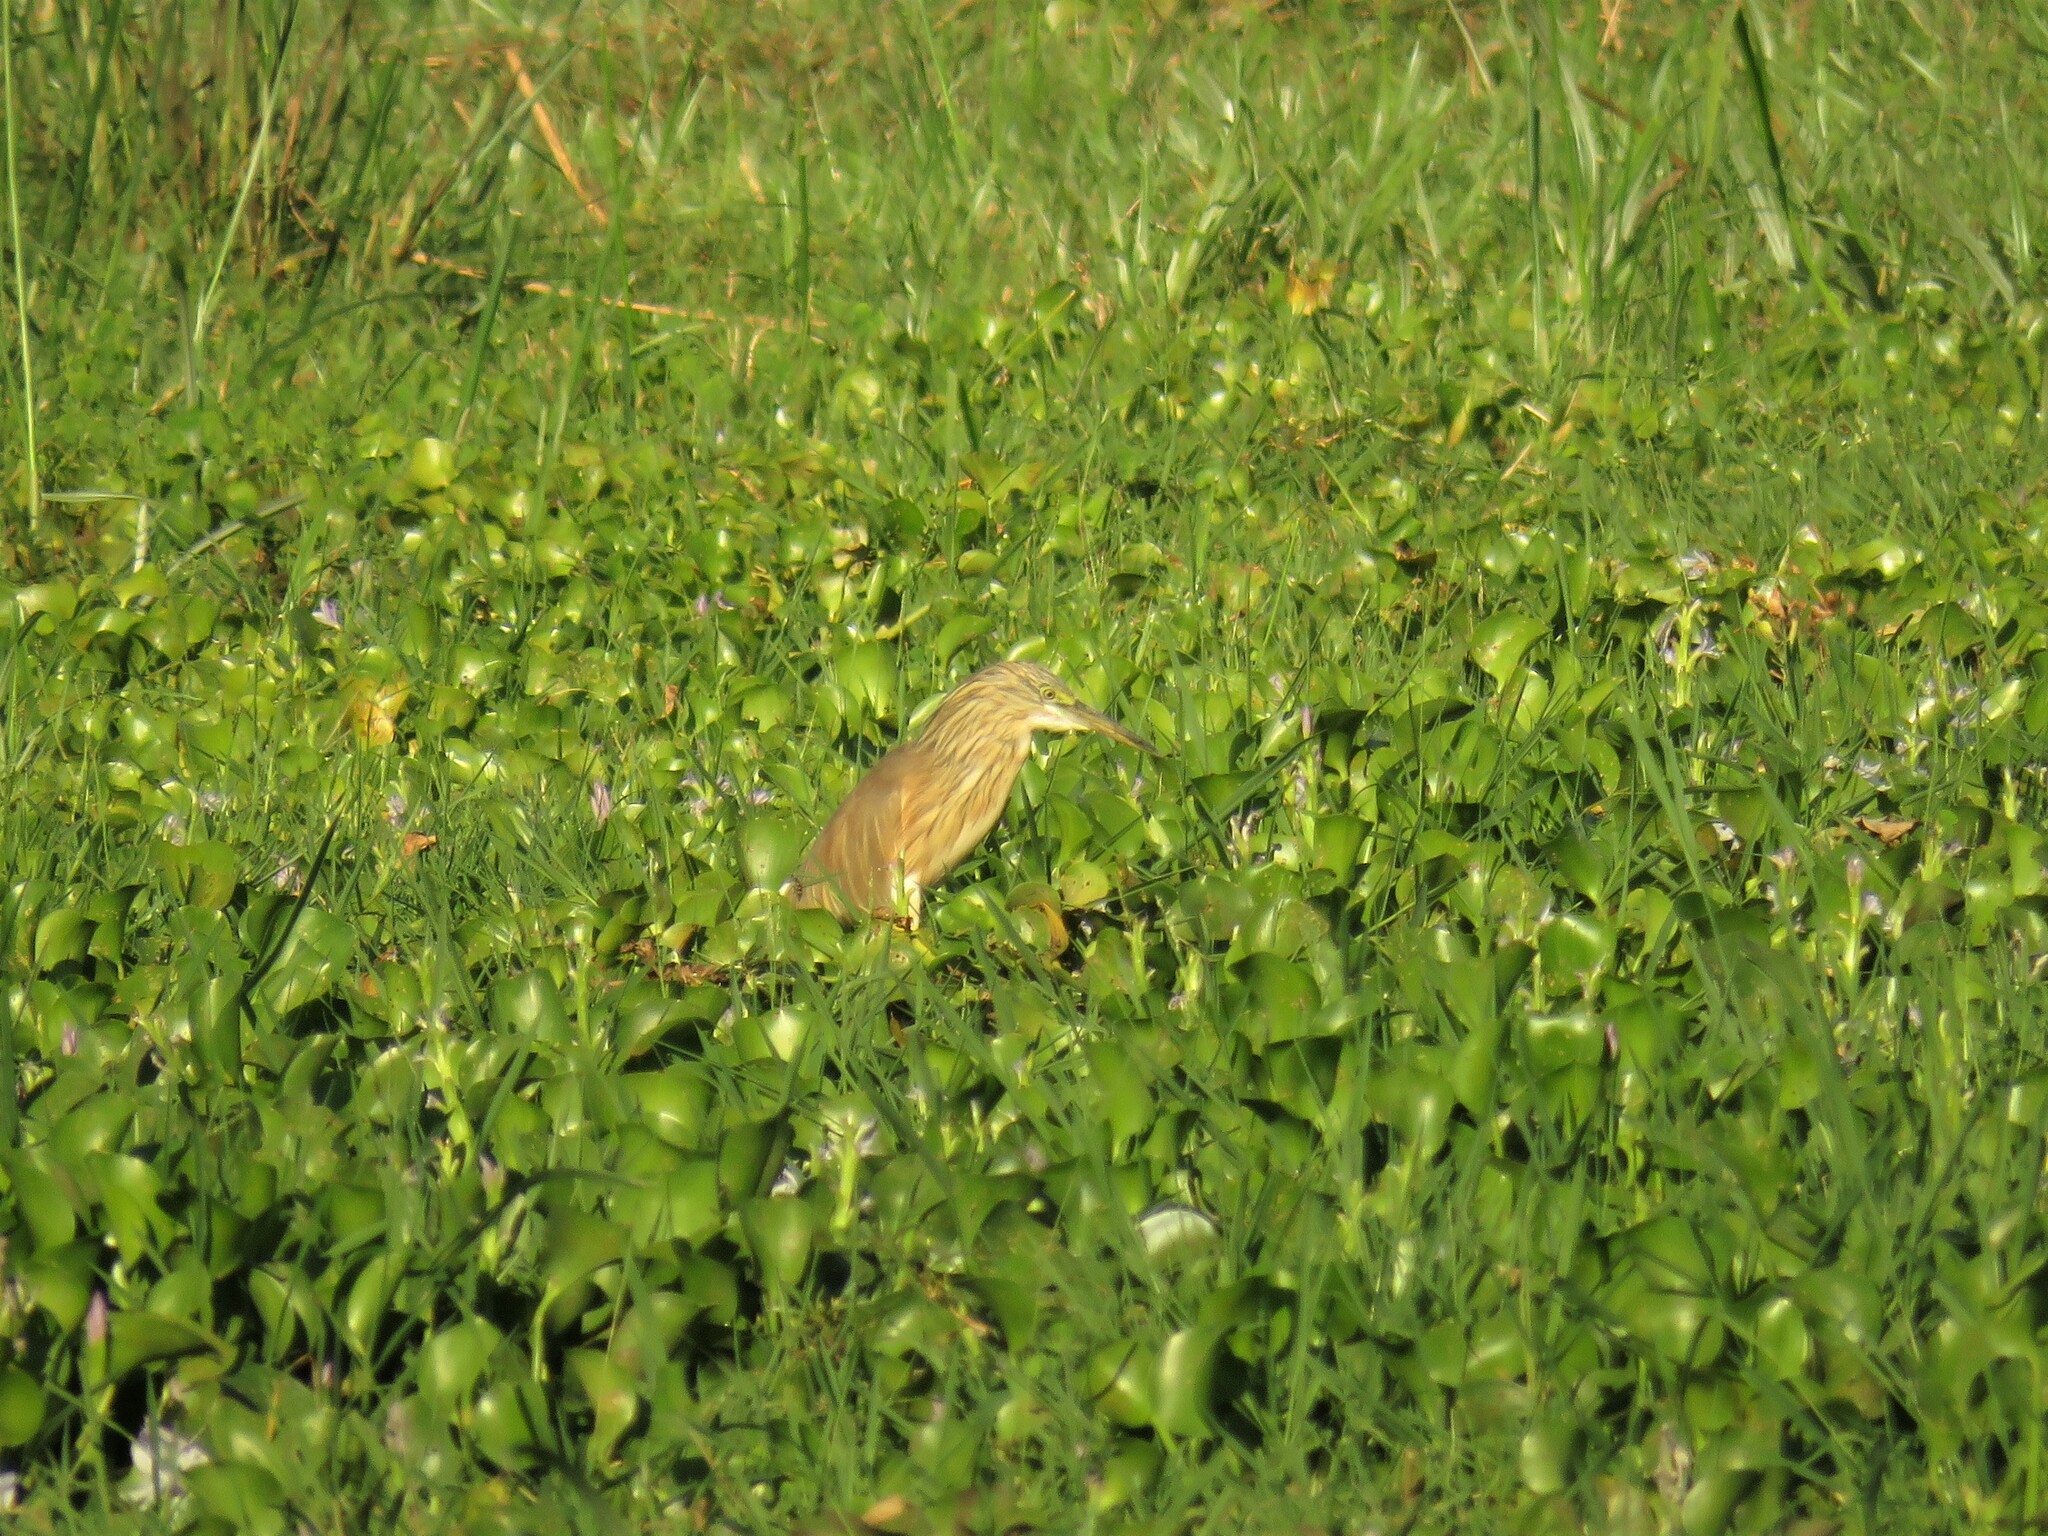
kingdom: Animalia
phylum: Chordata
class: Aves
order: Pelecaniformes
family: Ardeidae
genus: Ardeola
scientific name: Ardeola ralloides
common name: Squacco heron
